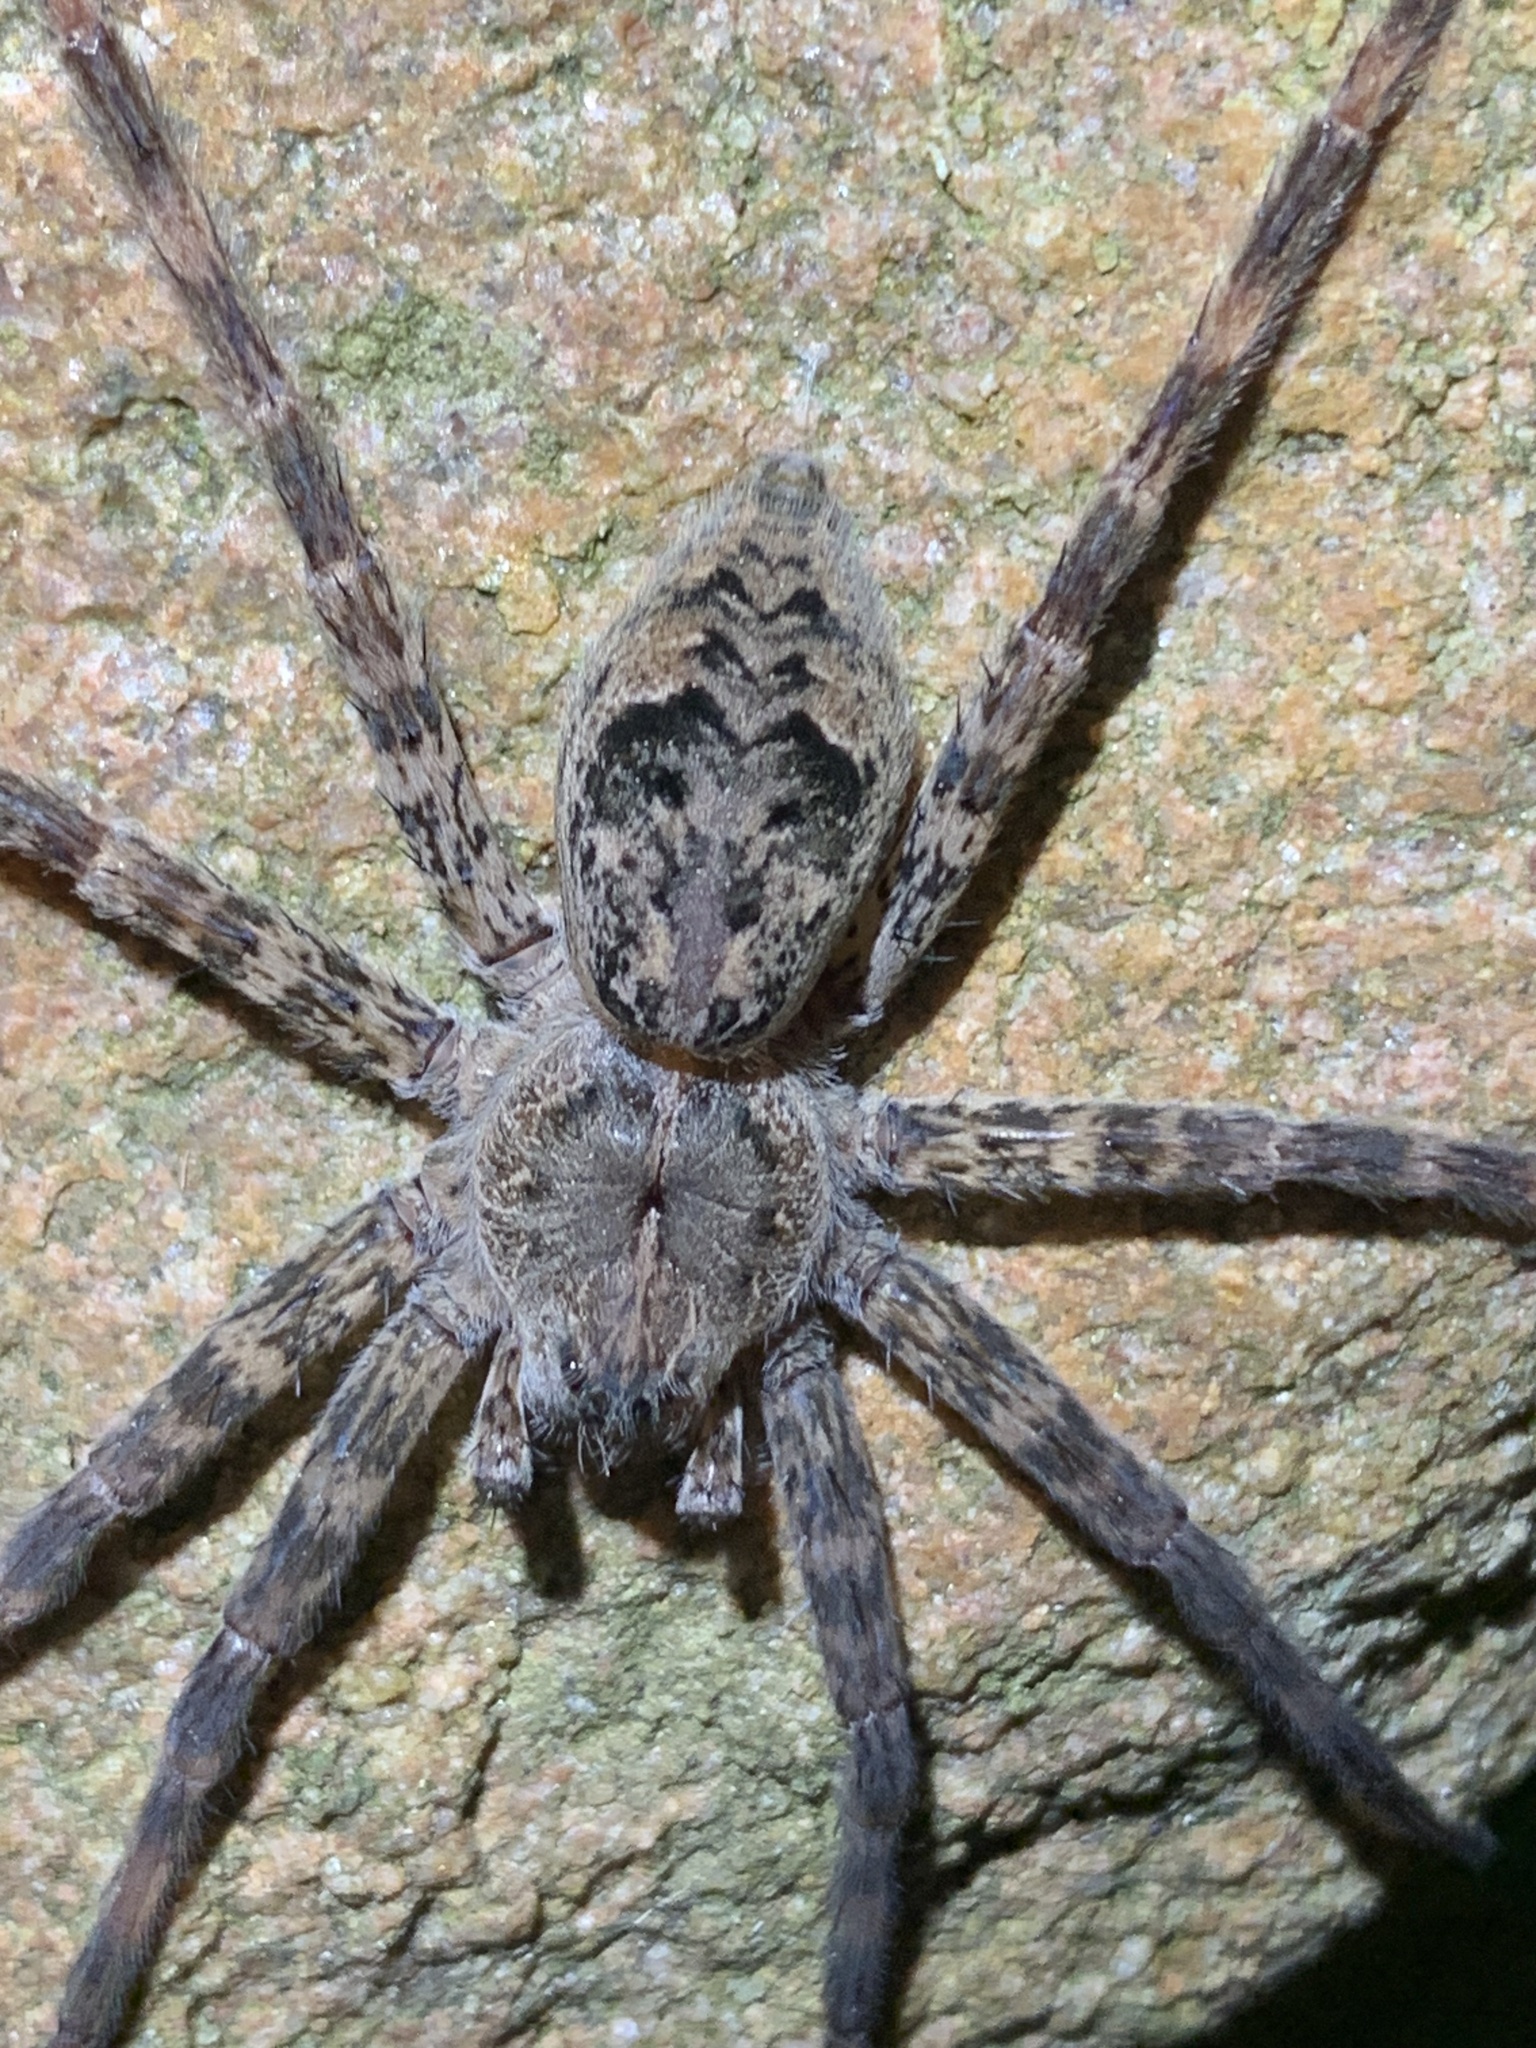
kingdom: Animalia
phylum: Arthropoda
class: Arachnida
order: Araneae
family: Pisauridae
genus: Dolomedes
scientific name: Dolomedes tenebrosus
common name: Dark fishing spider
